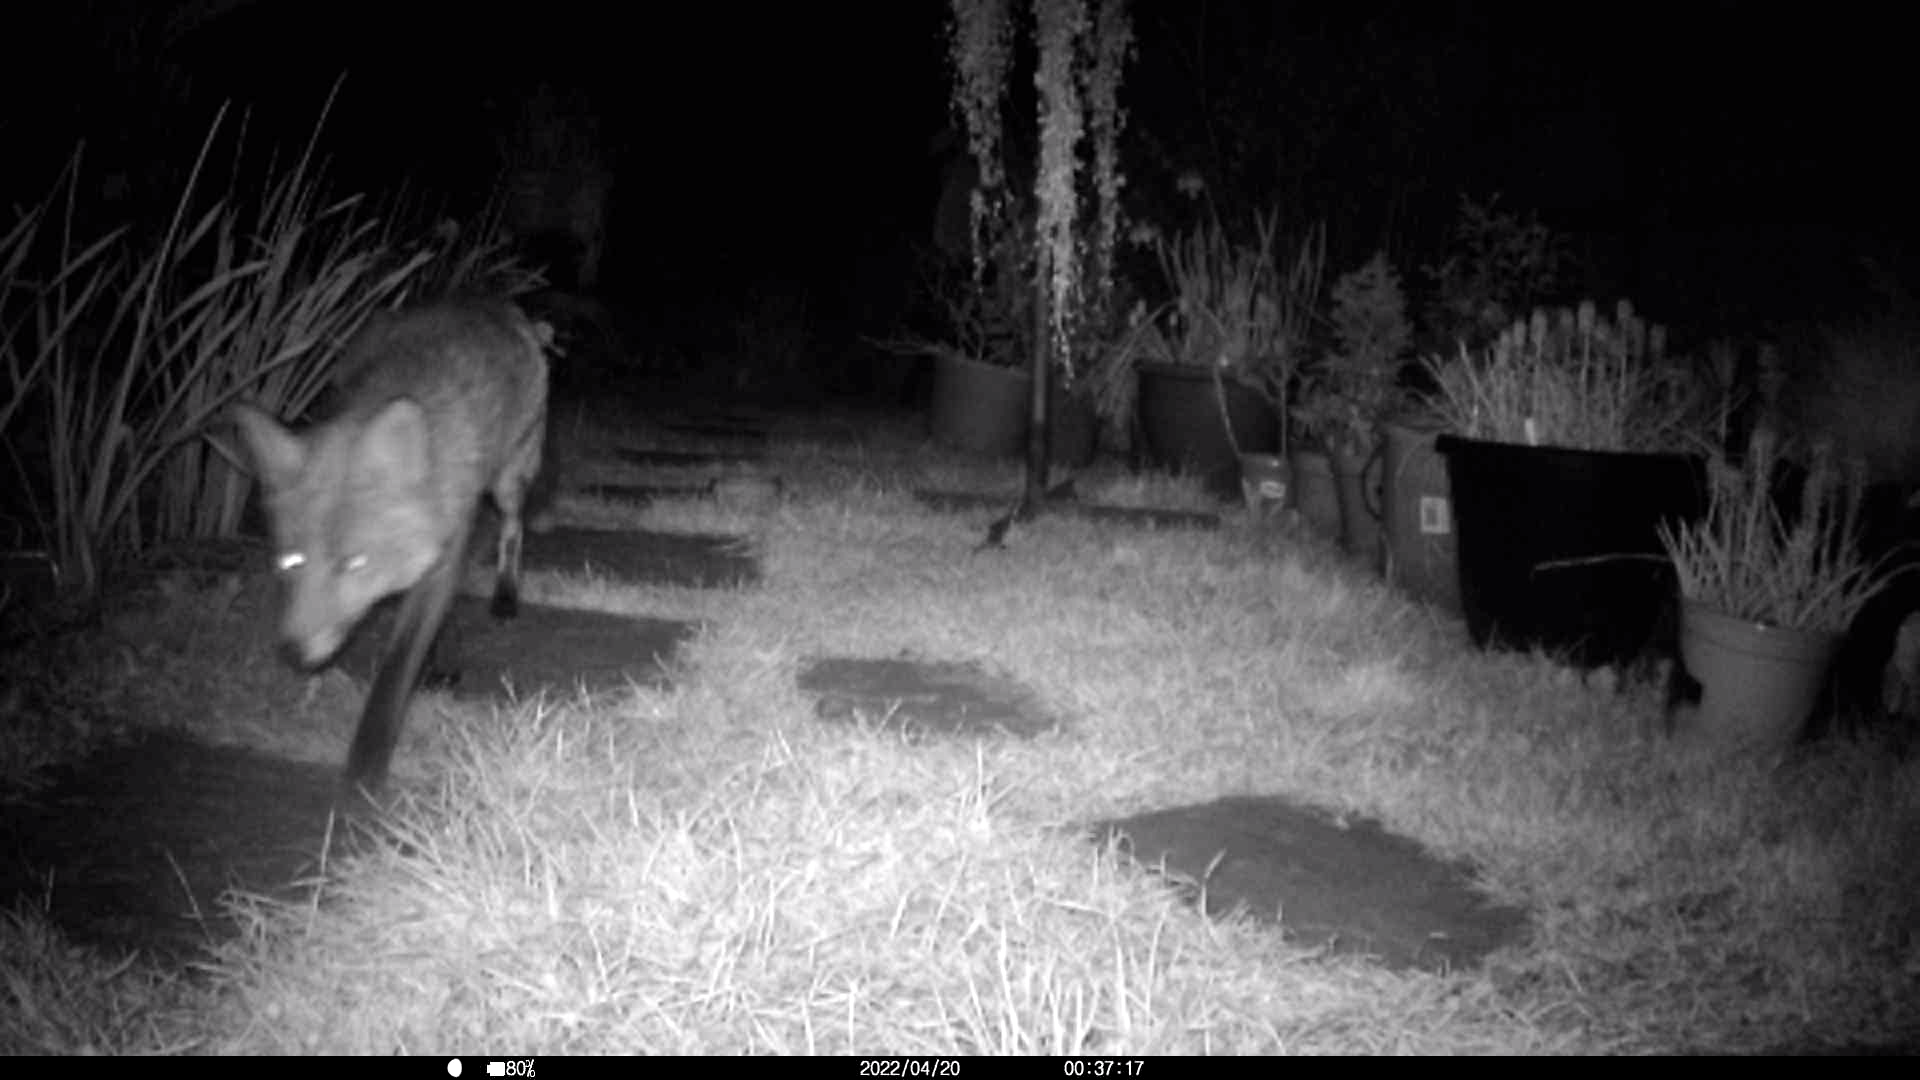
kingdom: Animalia
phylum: Chordata
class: Mammalia
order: Carnivora
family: Canidae
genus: Vulpes
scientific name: Vulpes vulpes
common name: Red fox
